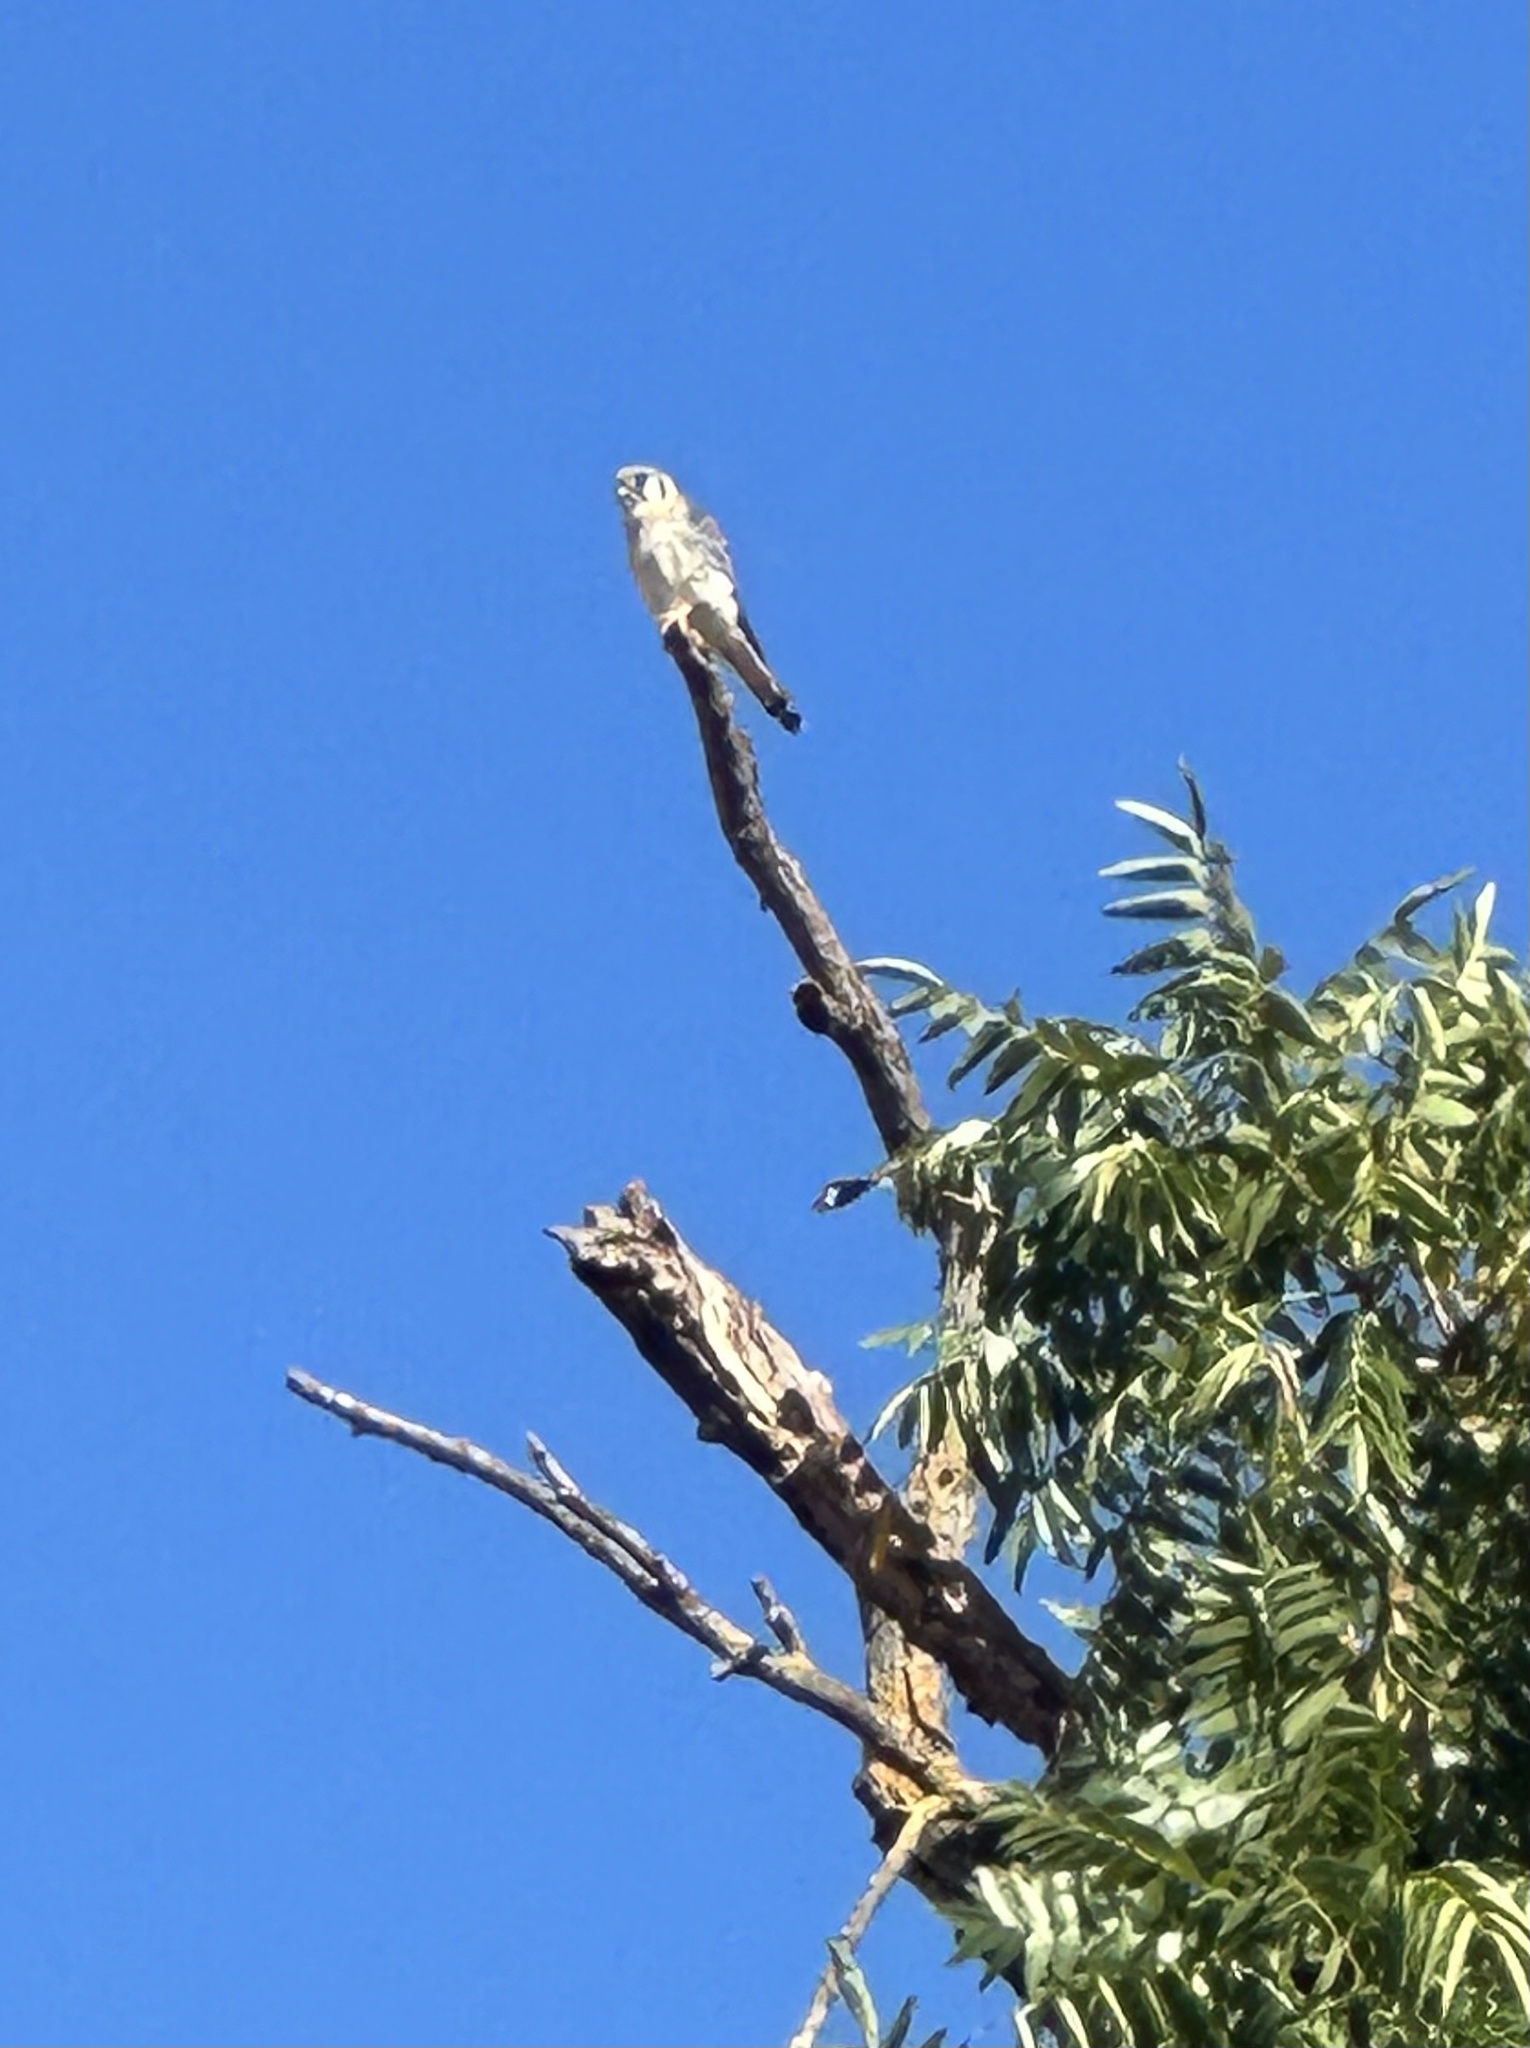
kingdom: Animalia
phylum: Chordata
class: Aves
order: Falconiformes
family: Falconidae
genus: Falco
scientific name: Falco sparverius
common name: American kestrel
